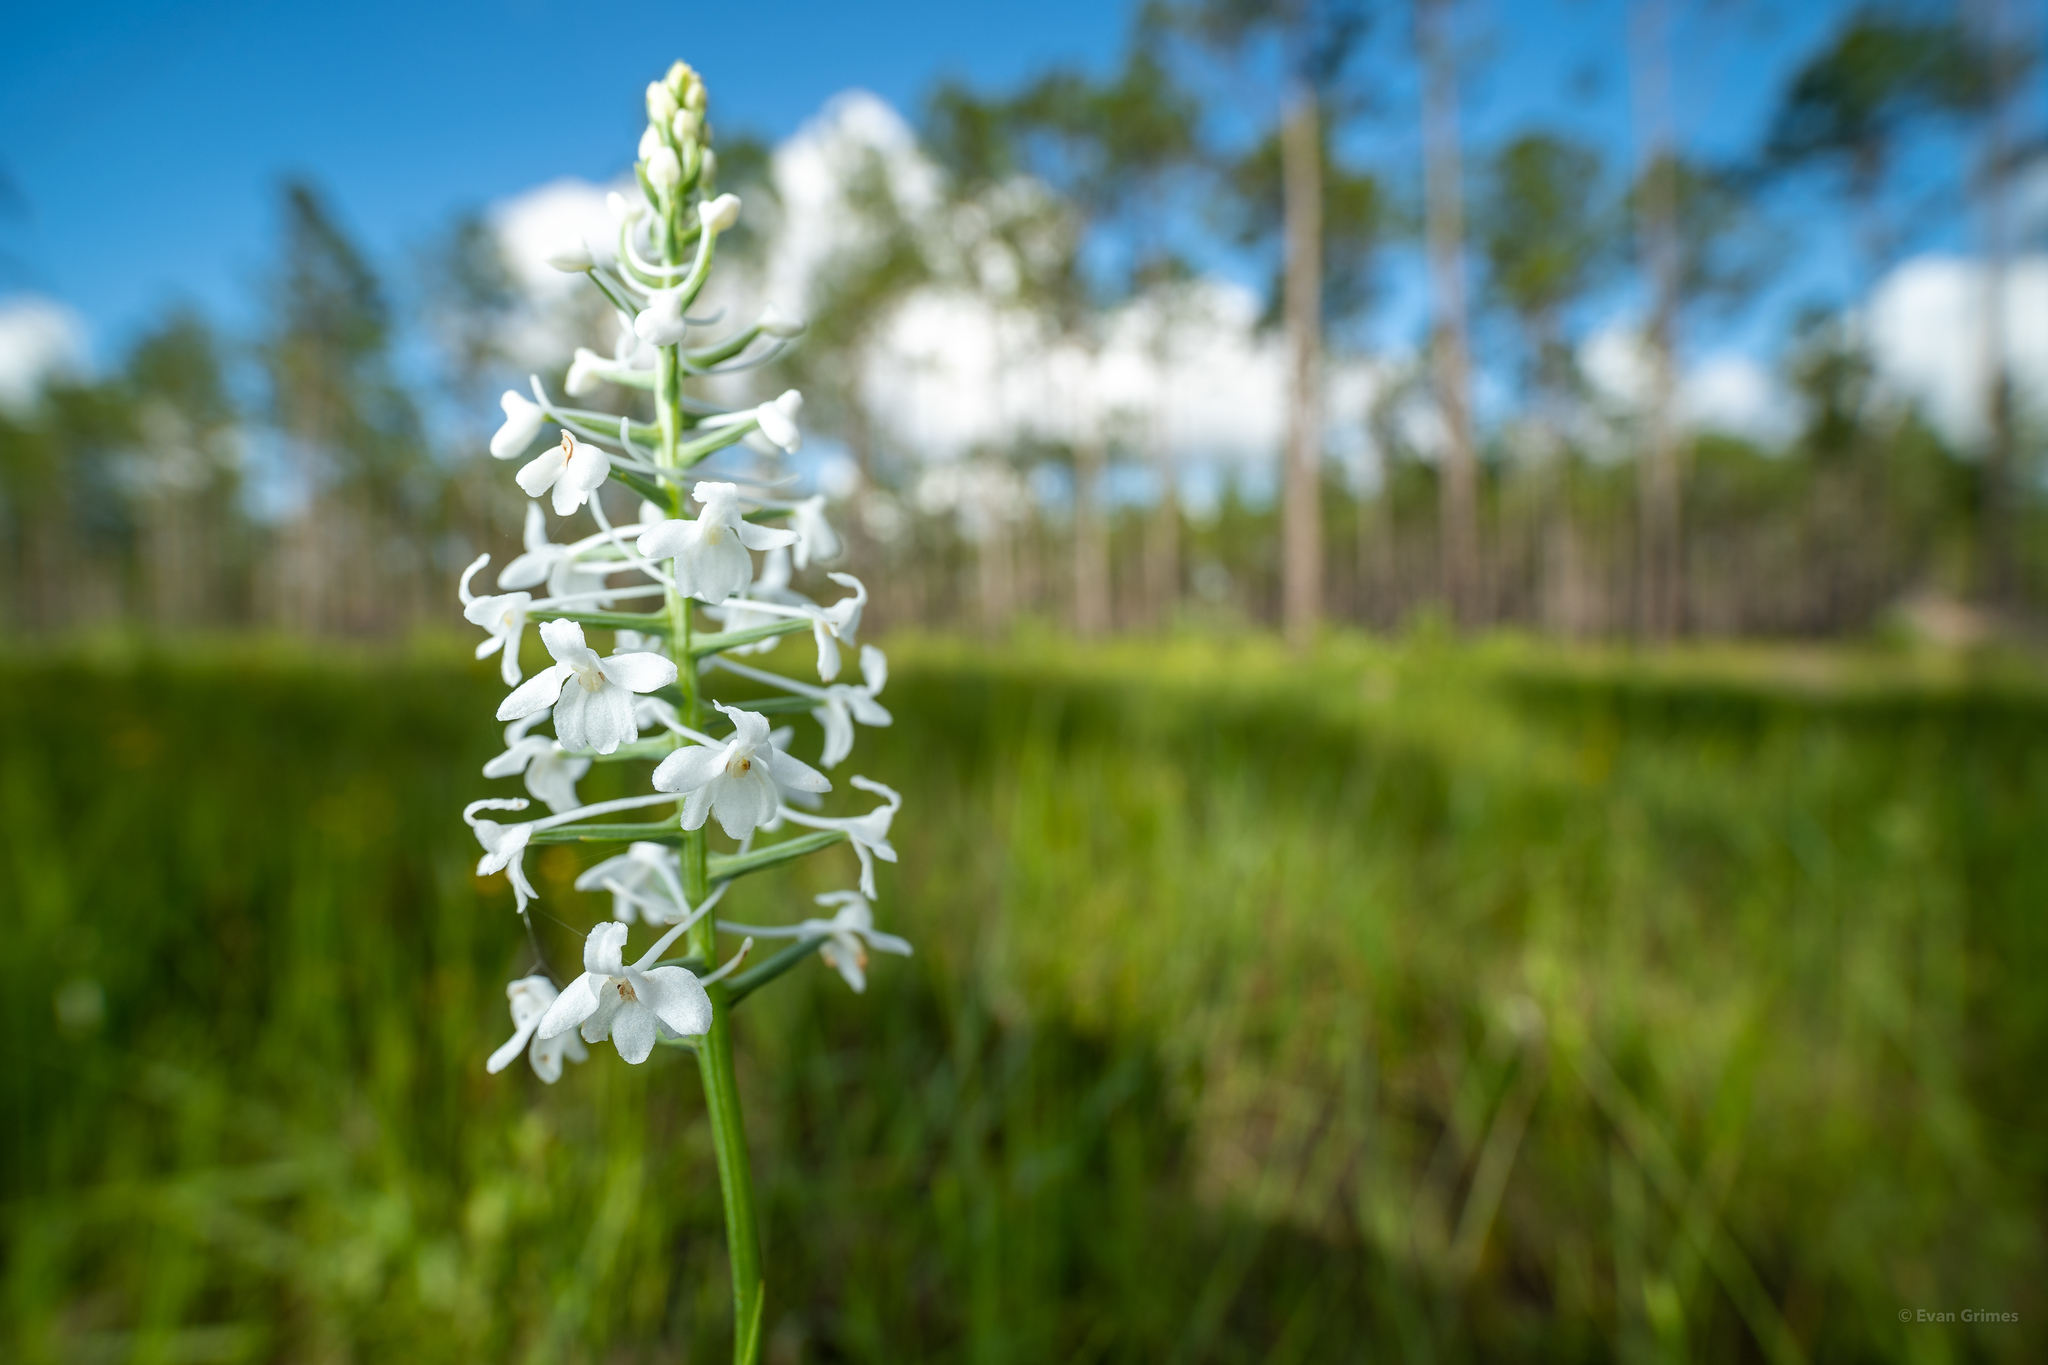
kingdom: Plantae
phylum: Tracheophyta
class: Liliopsida
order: Asparagales
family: Orchidaceae
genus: Platanthera
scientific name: Platanthera nivea
